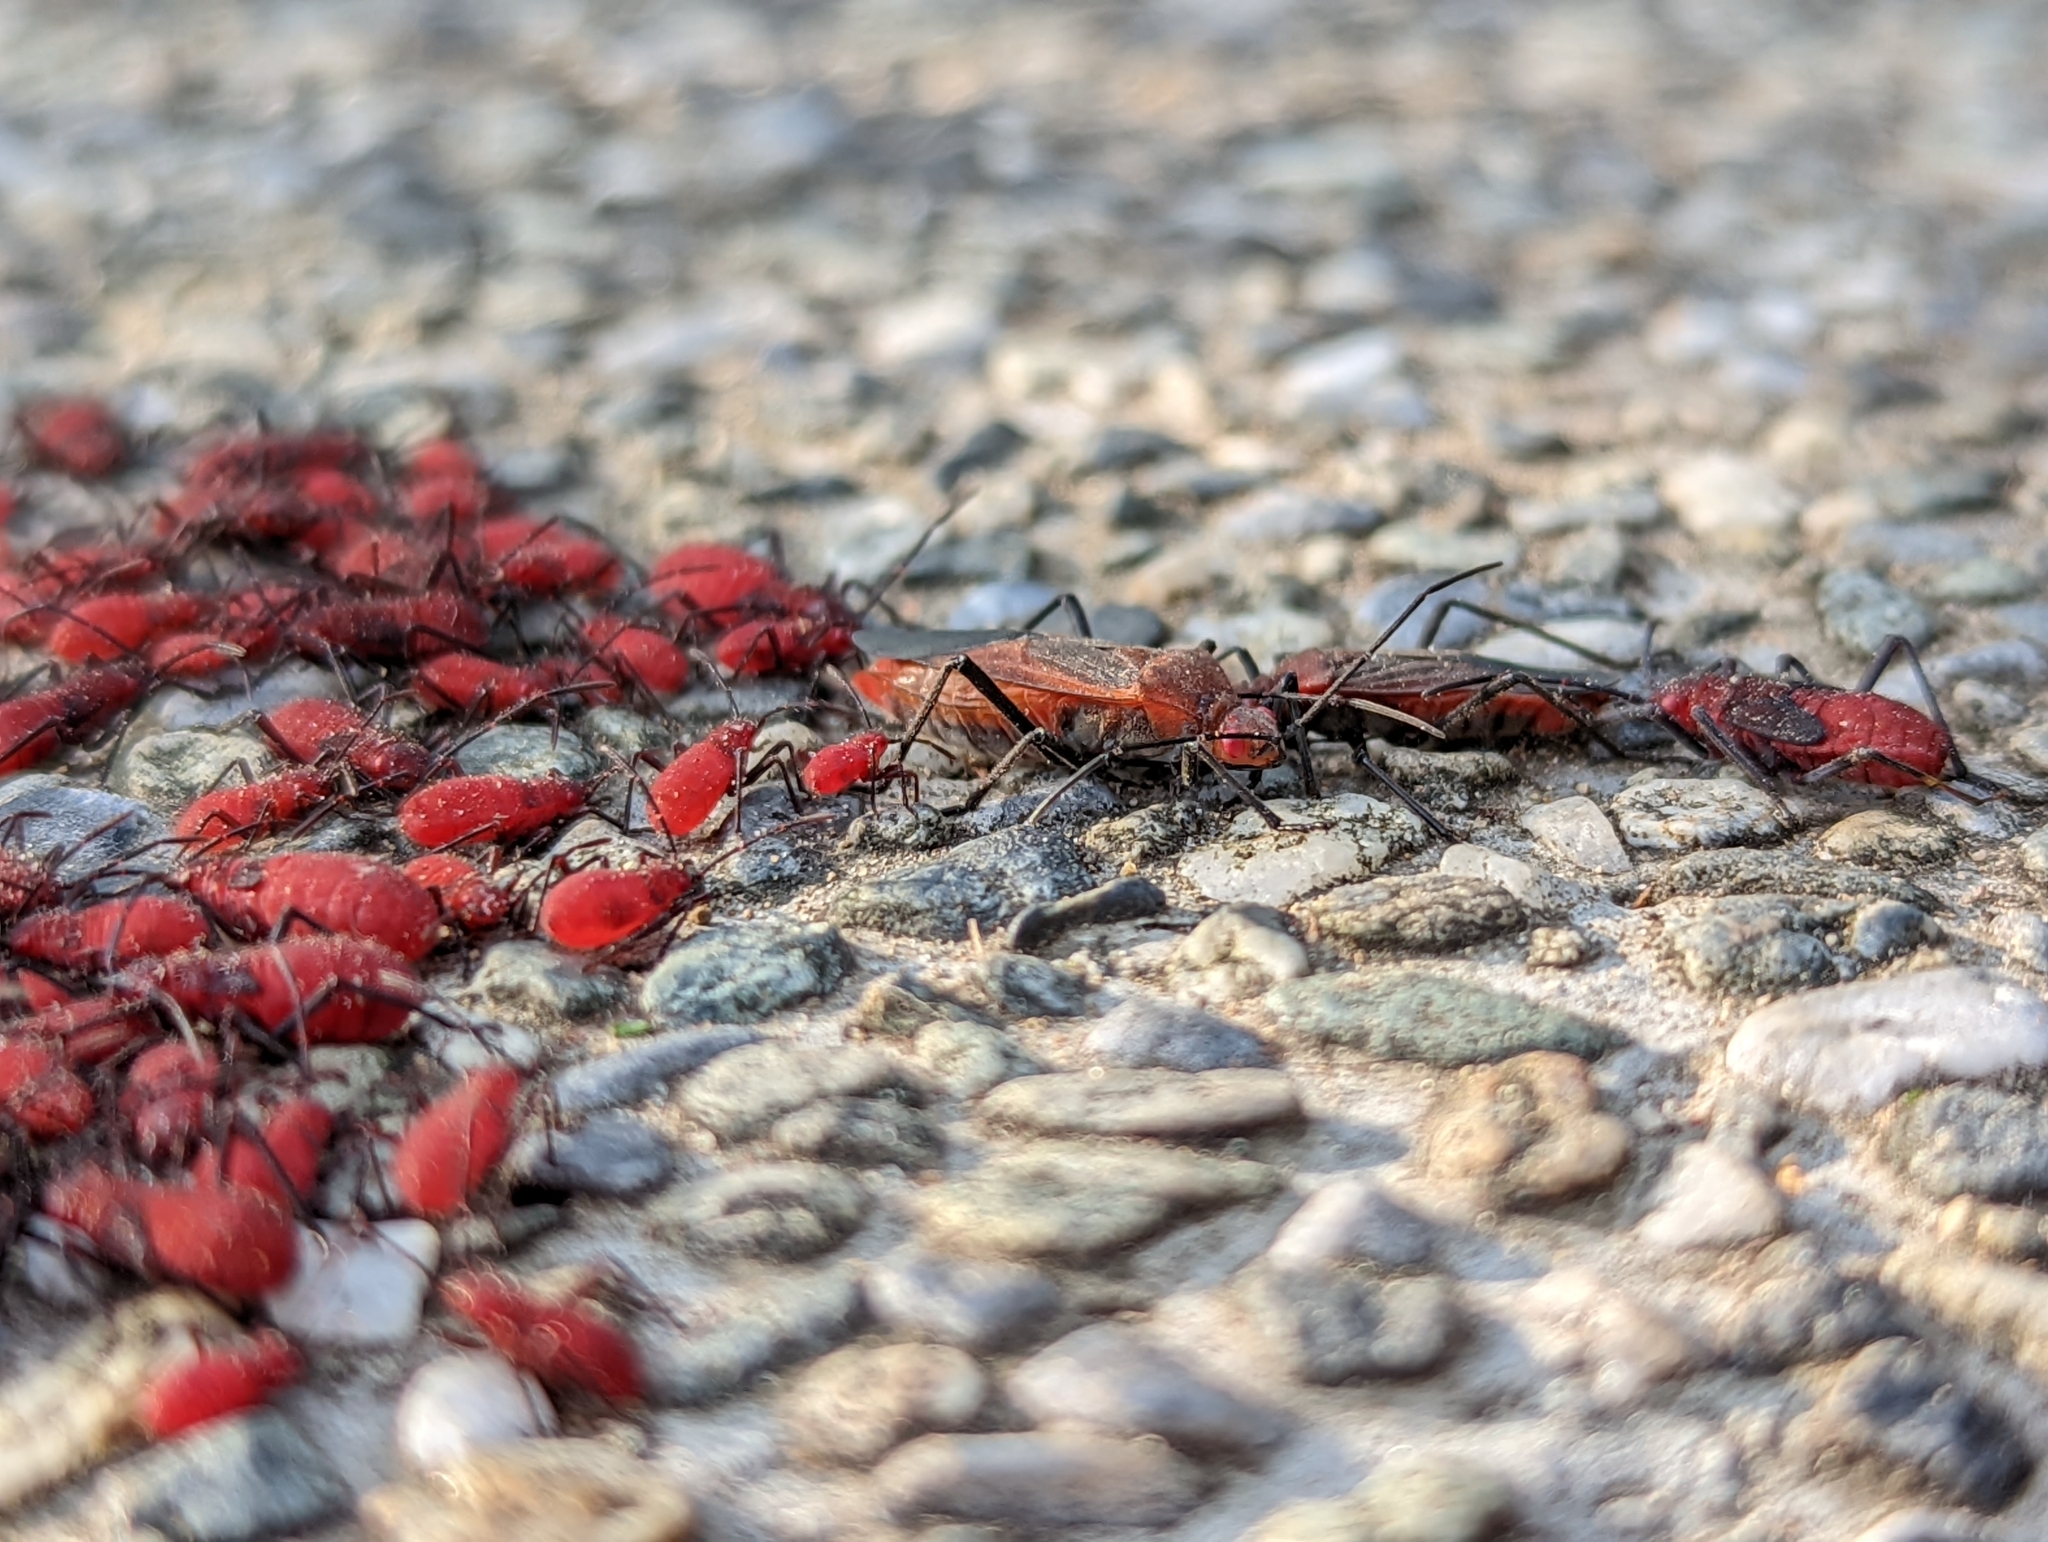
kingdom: Animalia
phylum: Arthropoda
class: Insecta
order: Hemiptera
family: Rhopalidae
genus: Leptocoris
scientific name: Leptocoris vicinus
